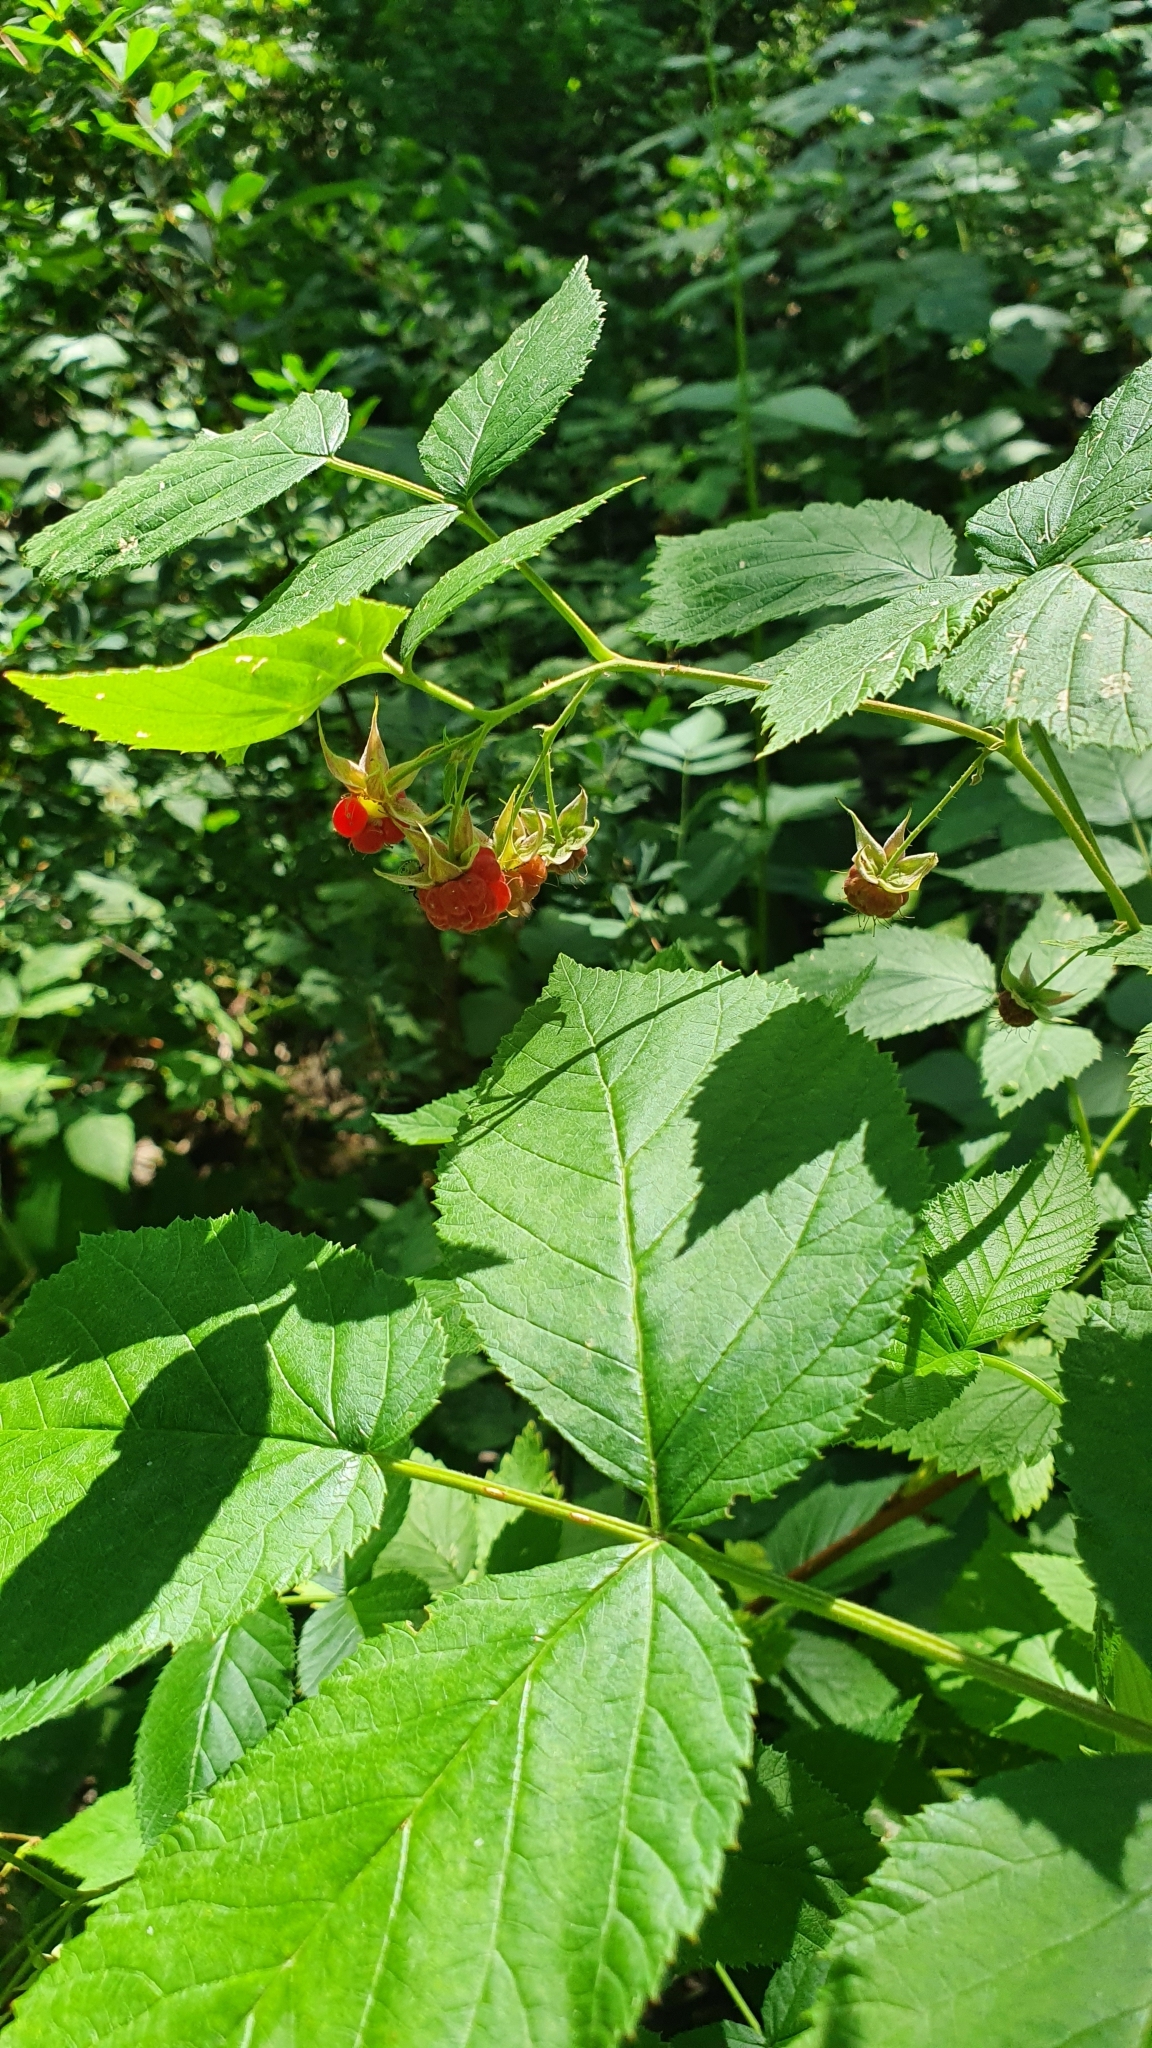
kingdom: Plantae
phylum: Tracheophyta
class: Magnoliopsida
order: Rosales
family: Rosaceae
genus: Rubus
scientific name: Rubus idaeus
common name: Raspberry
